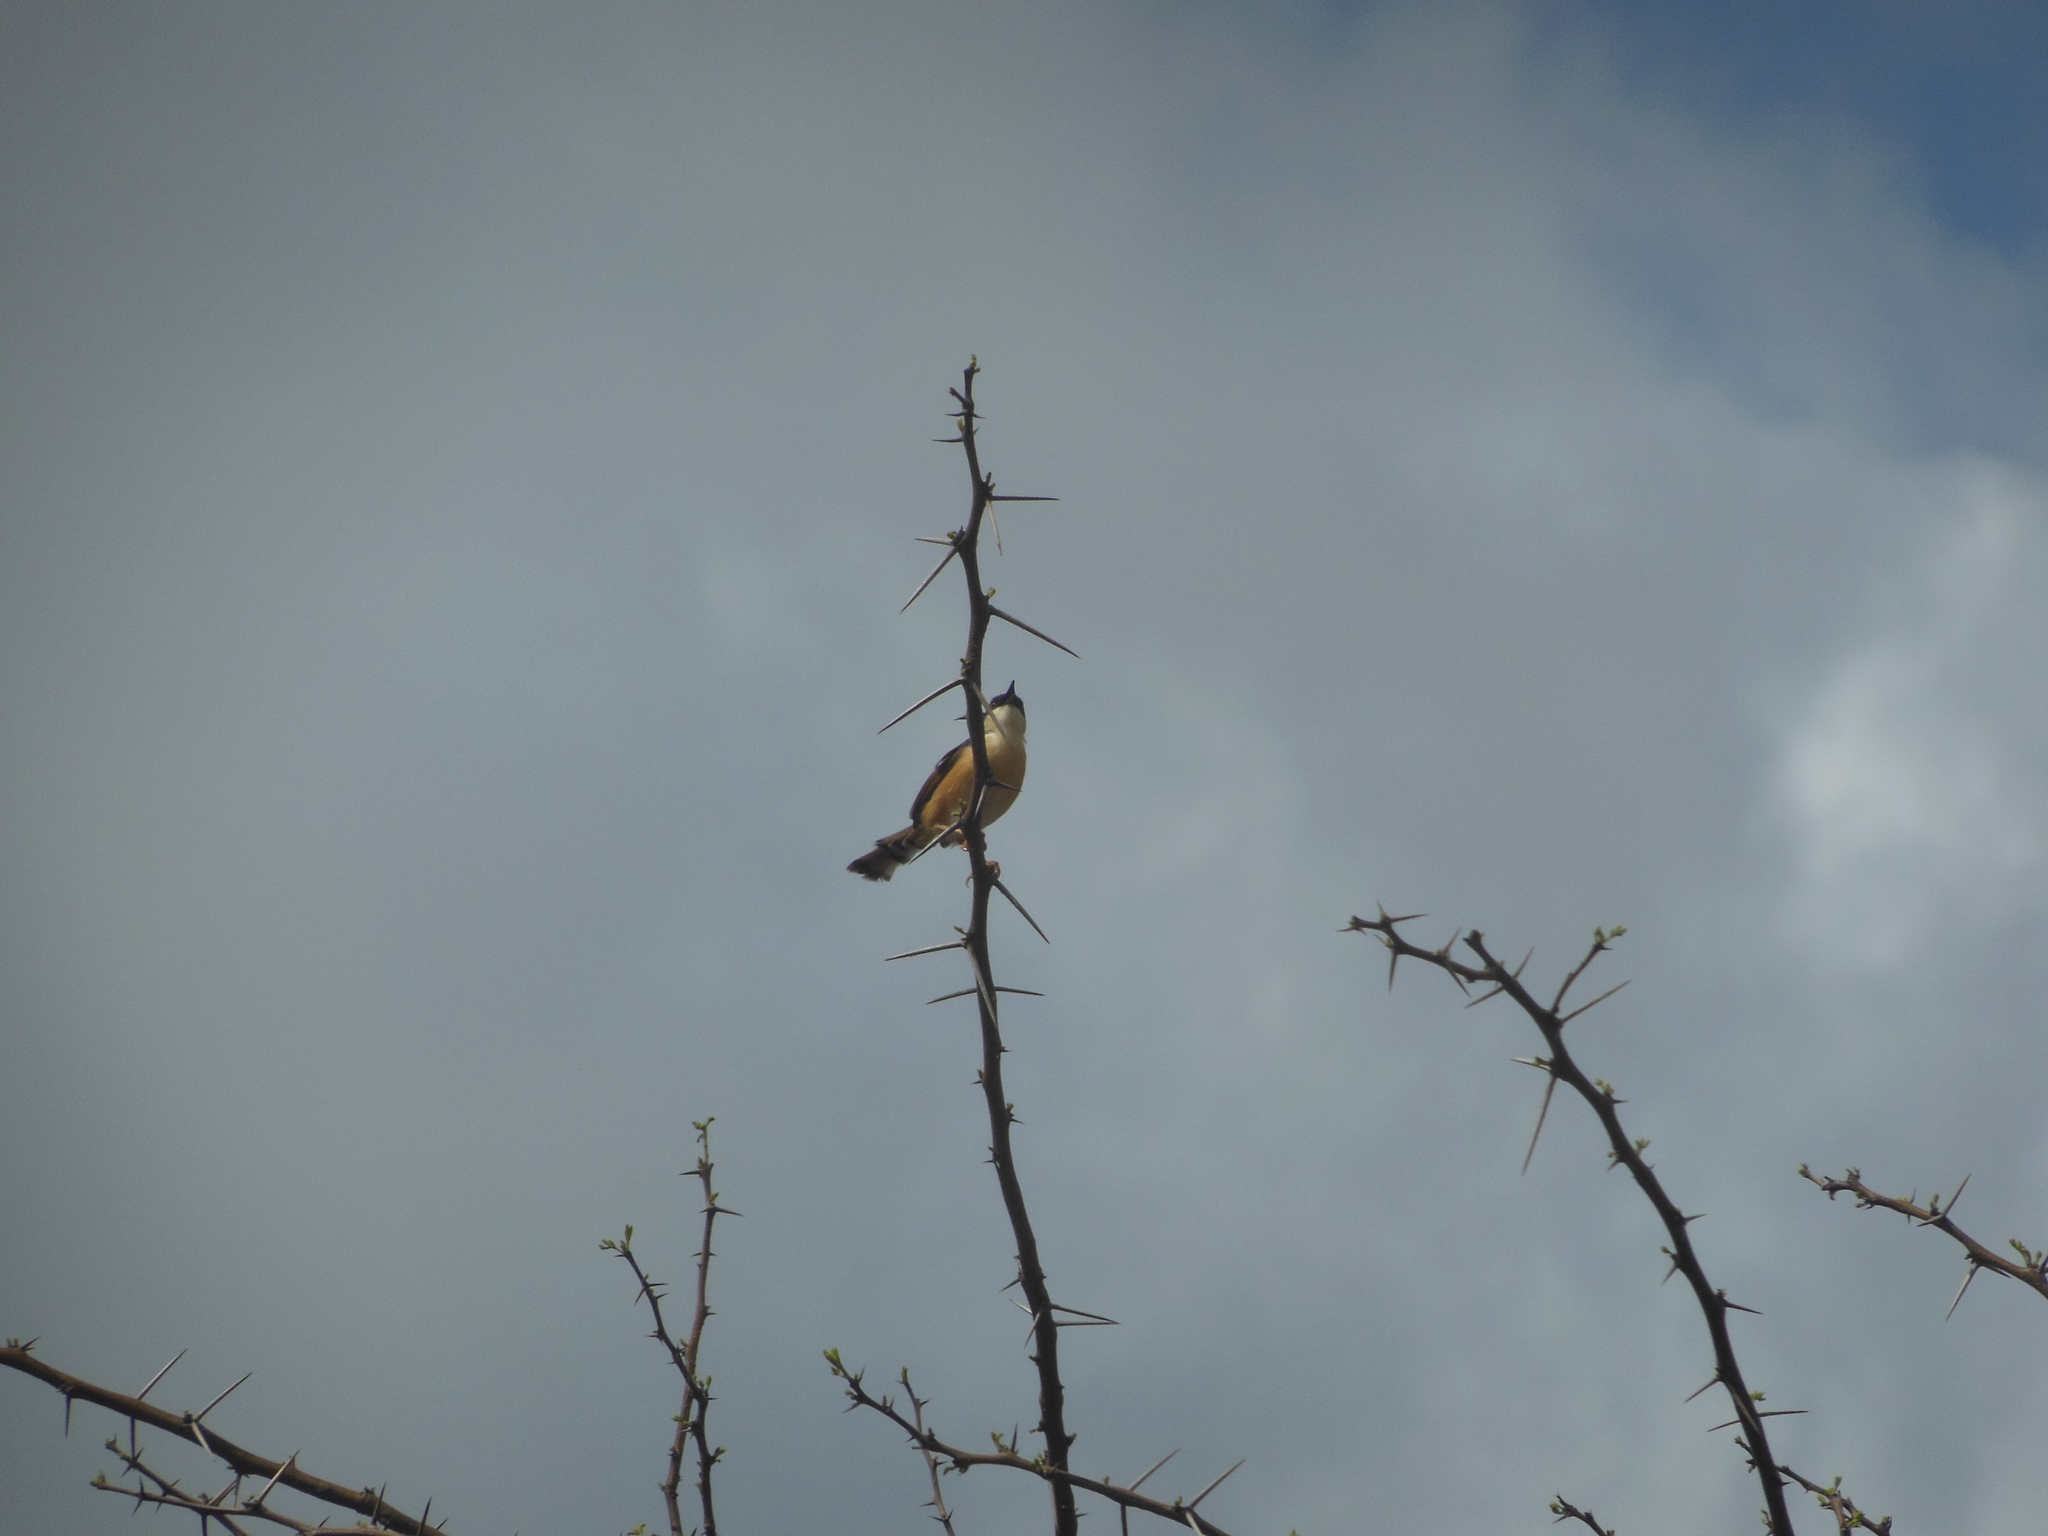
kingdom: Animalia
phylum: Chordata
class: Aves
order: Passeriformes
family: Cisticolidae
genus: Prinia
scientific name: Prinia socialis
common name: Ashy prinia
